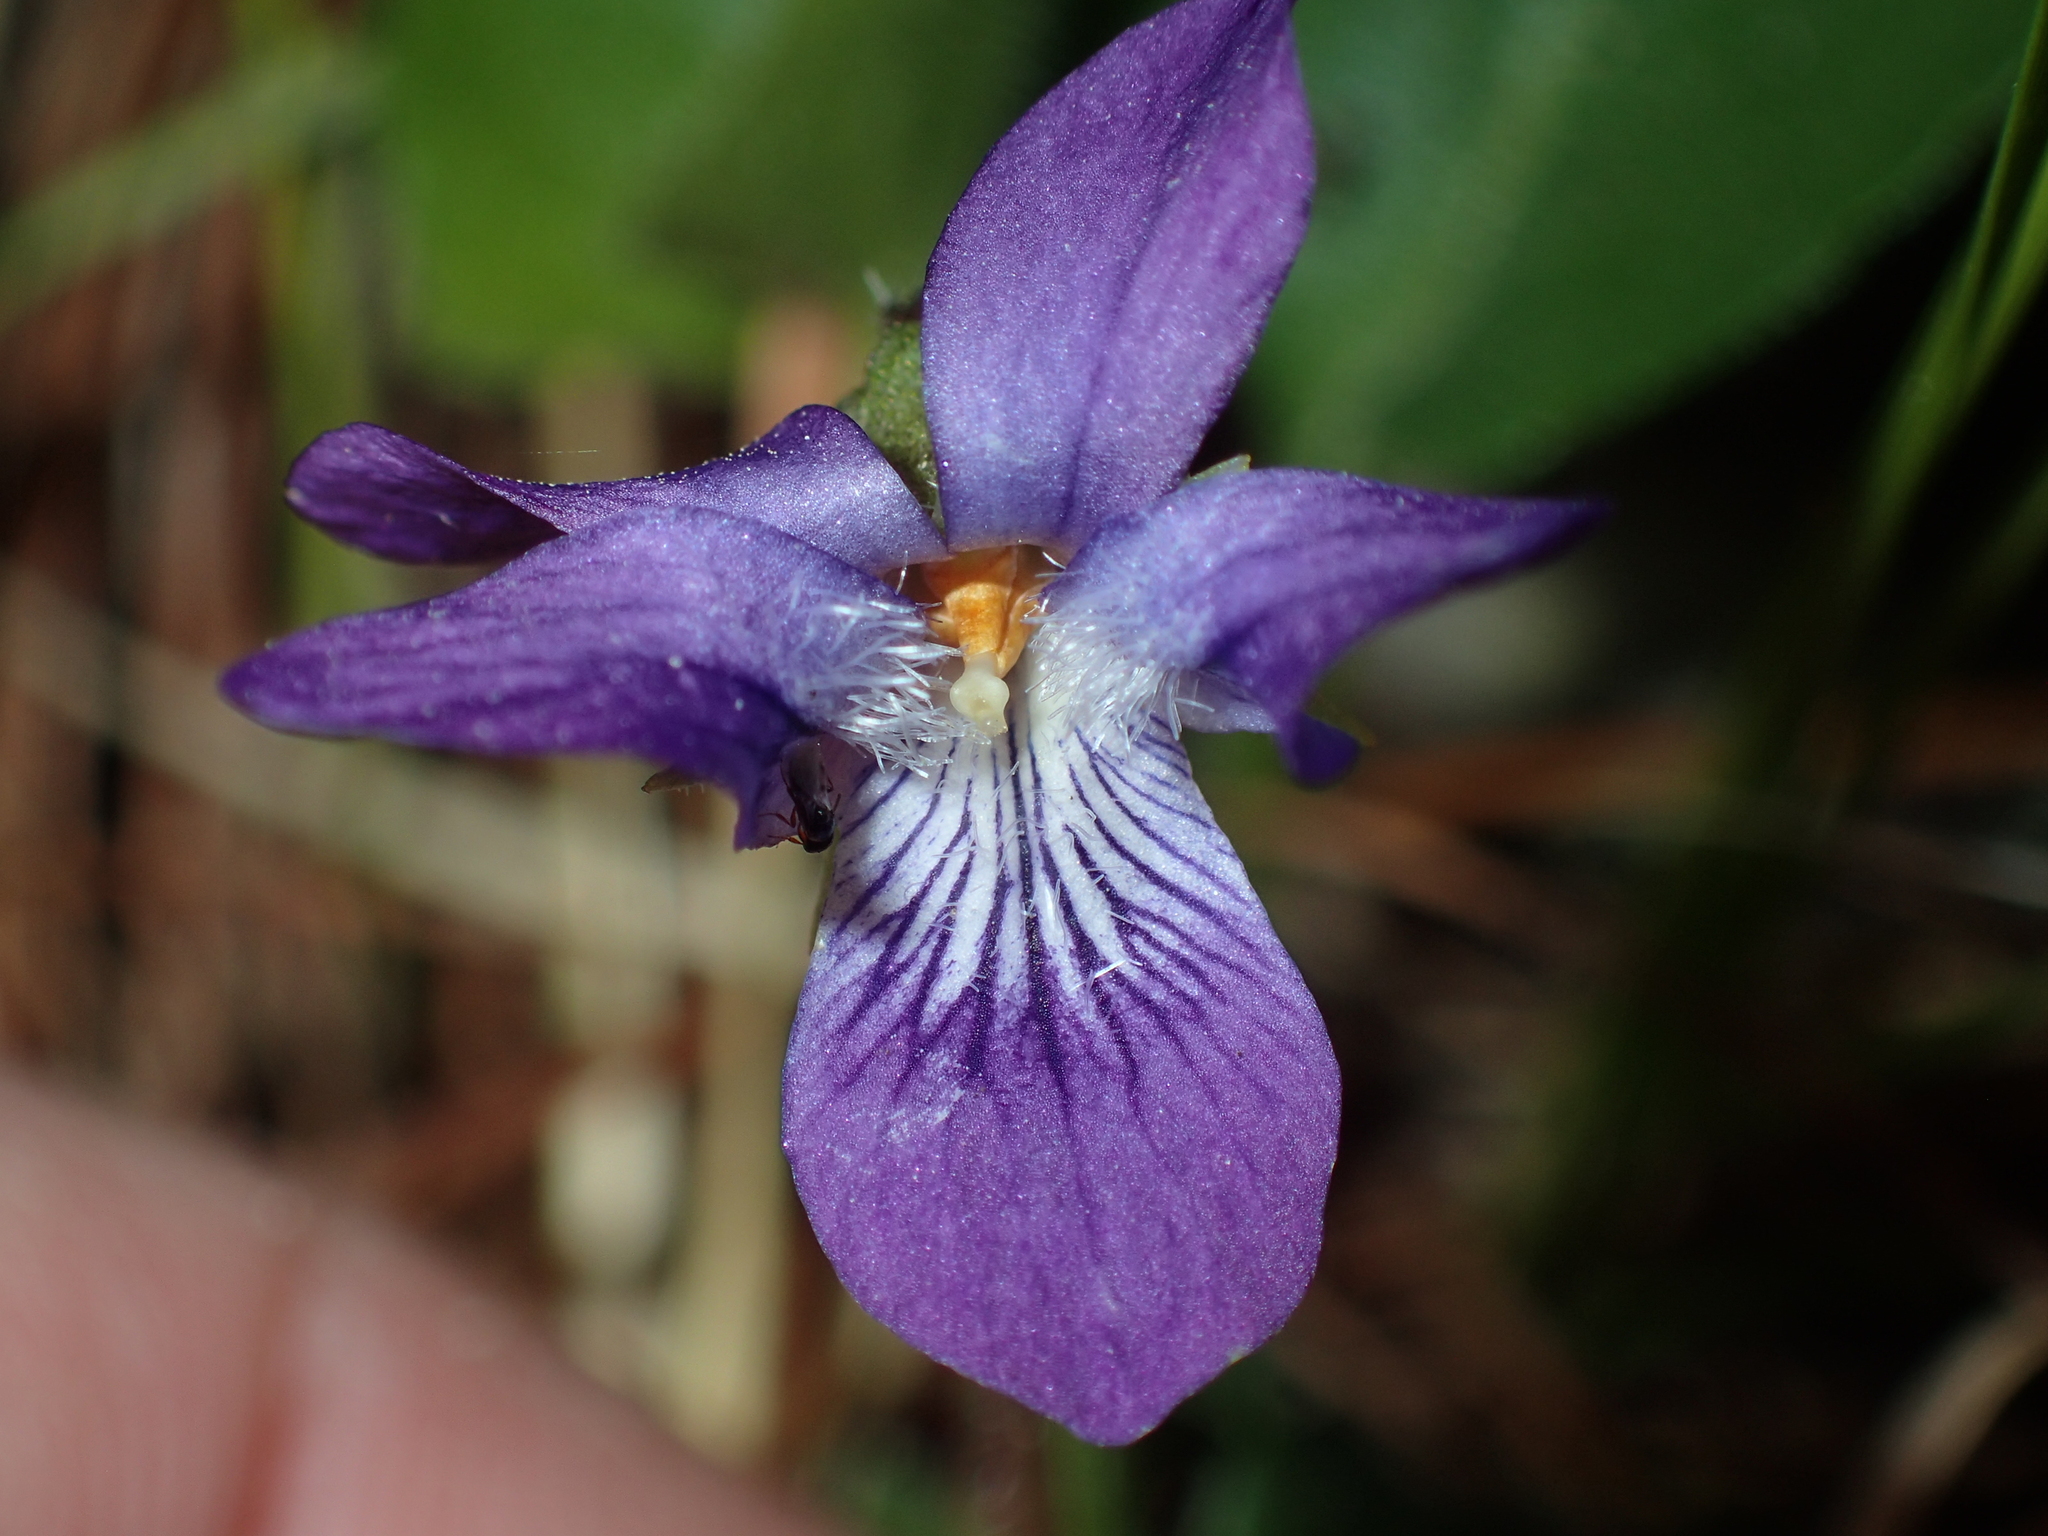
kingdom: Plantae
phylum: Tracheophyta
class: Magnoliopsida
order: Malpighiales
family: Violaceae
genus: Viola
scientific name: Viola fimbriatula
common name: Sand violet
